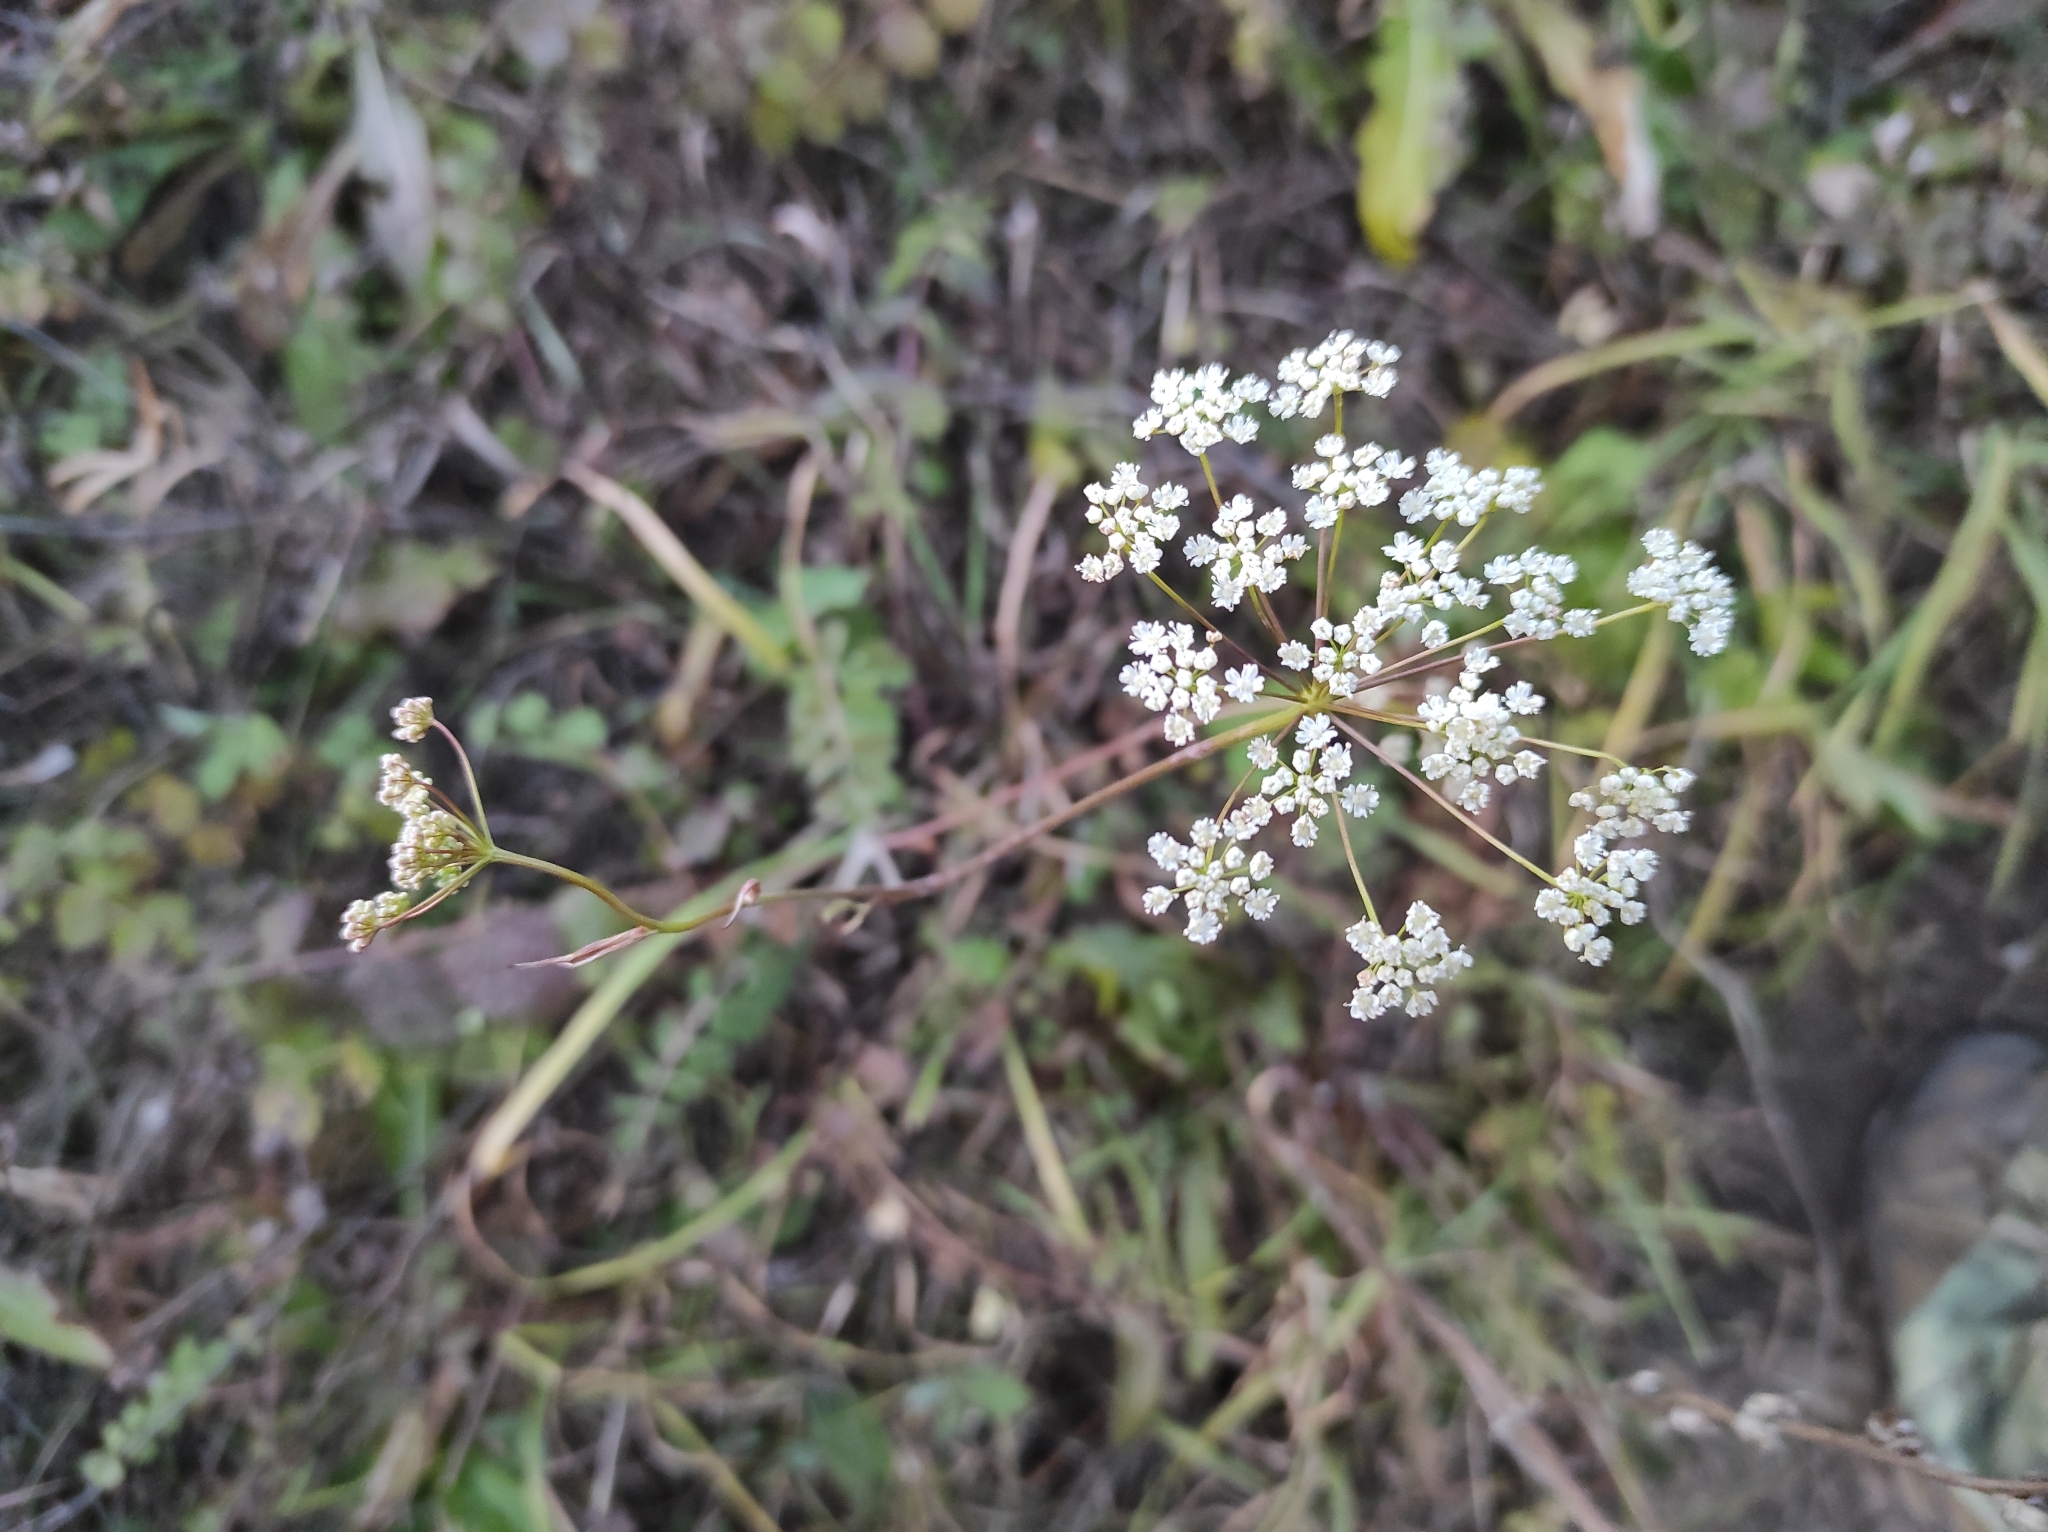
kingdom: Plantae
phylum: Tracheophyta
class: Magnoliopsida
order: Apiales
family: Apiaceae
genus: Pimpinella
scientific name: Pimpinella saxifraga
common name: Burnet-saxifrage
